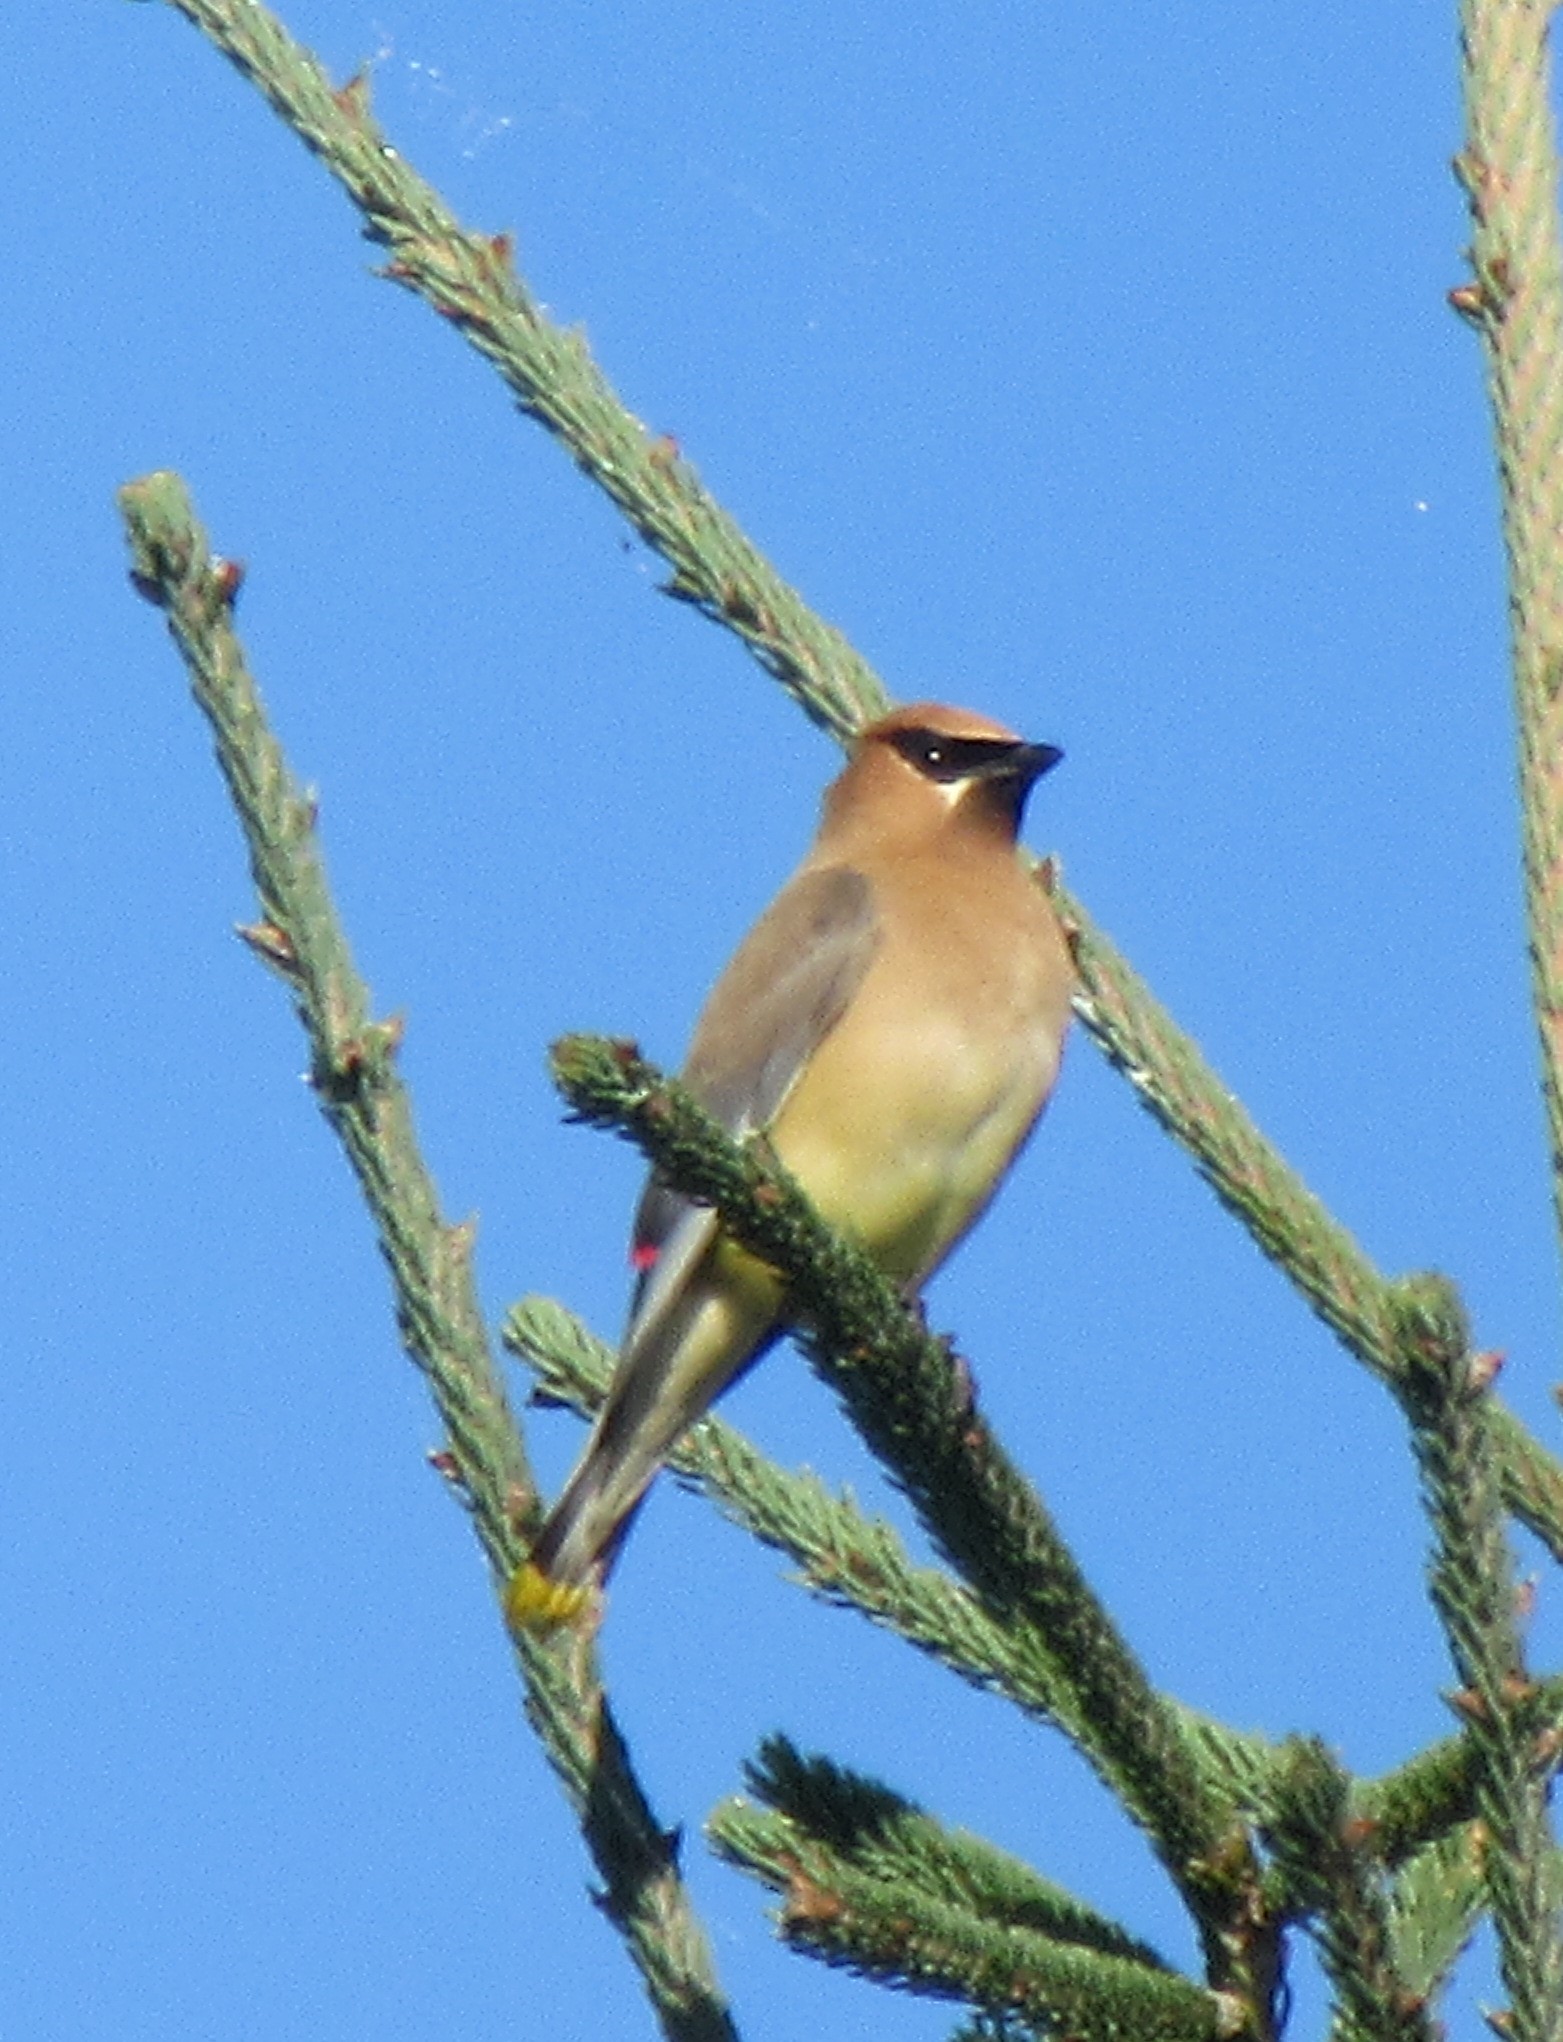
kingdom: Animalia
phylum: Chordata
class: Aves
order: Passeriformes
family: Bombycillidae
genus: Bombycilla
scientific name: Bombycilla cedrorum
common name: Cedar waxwing
